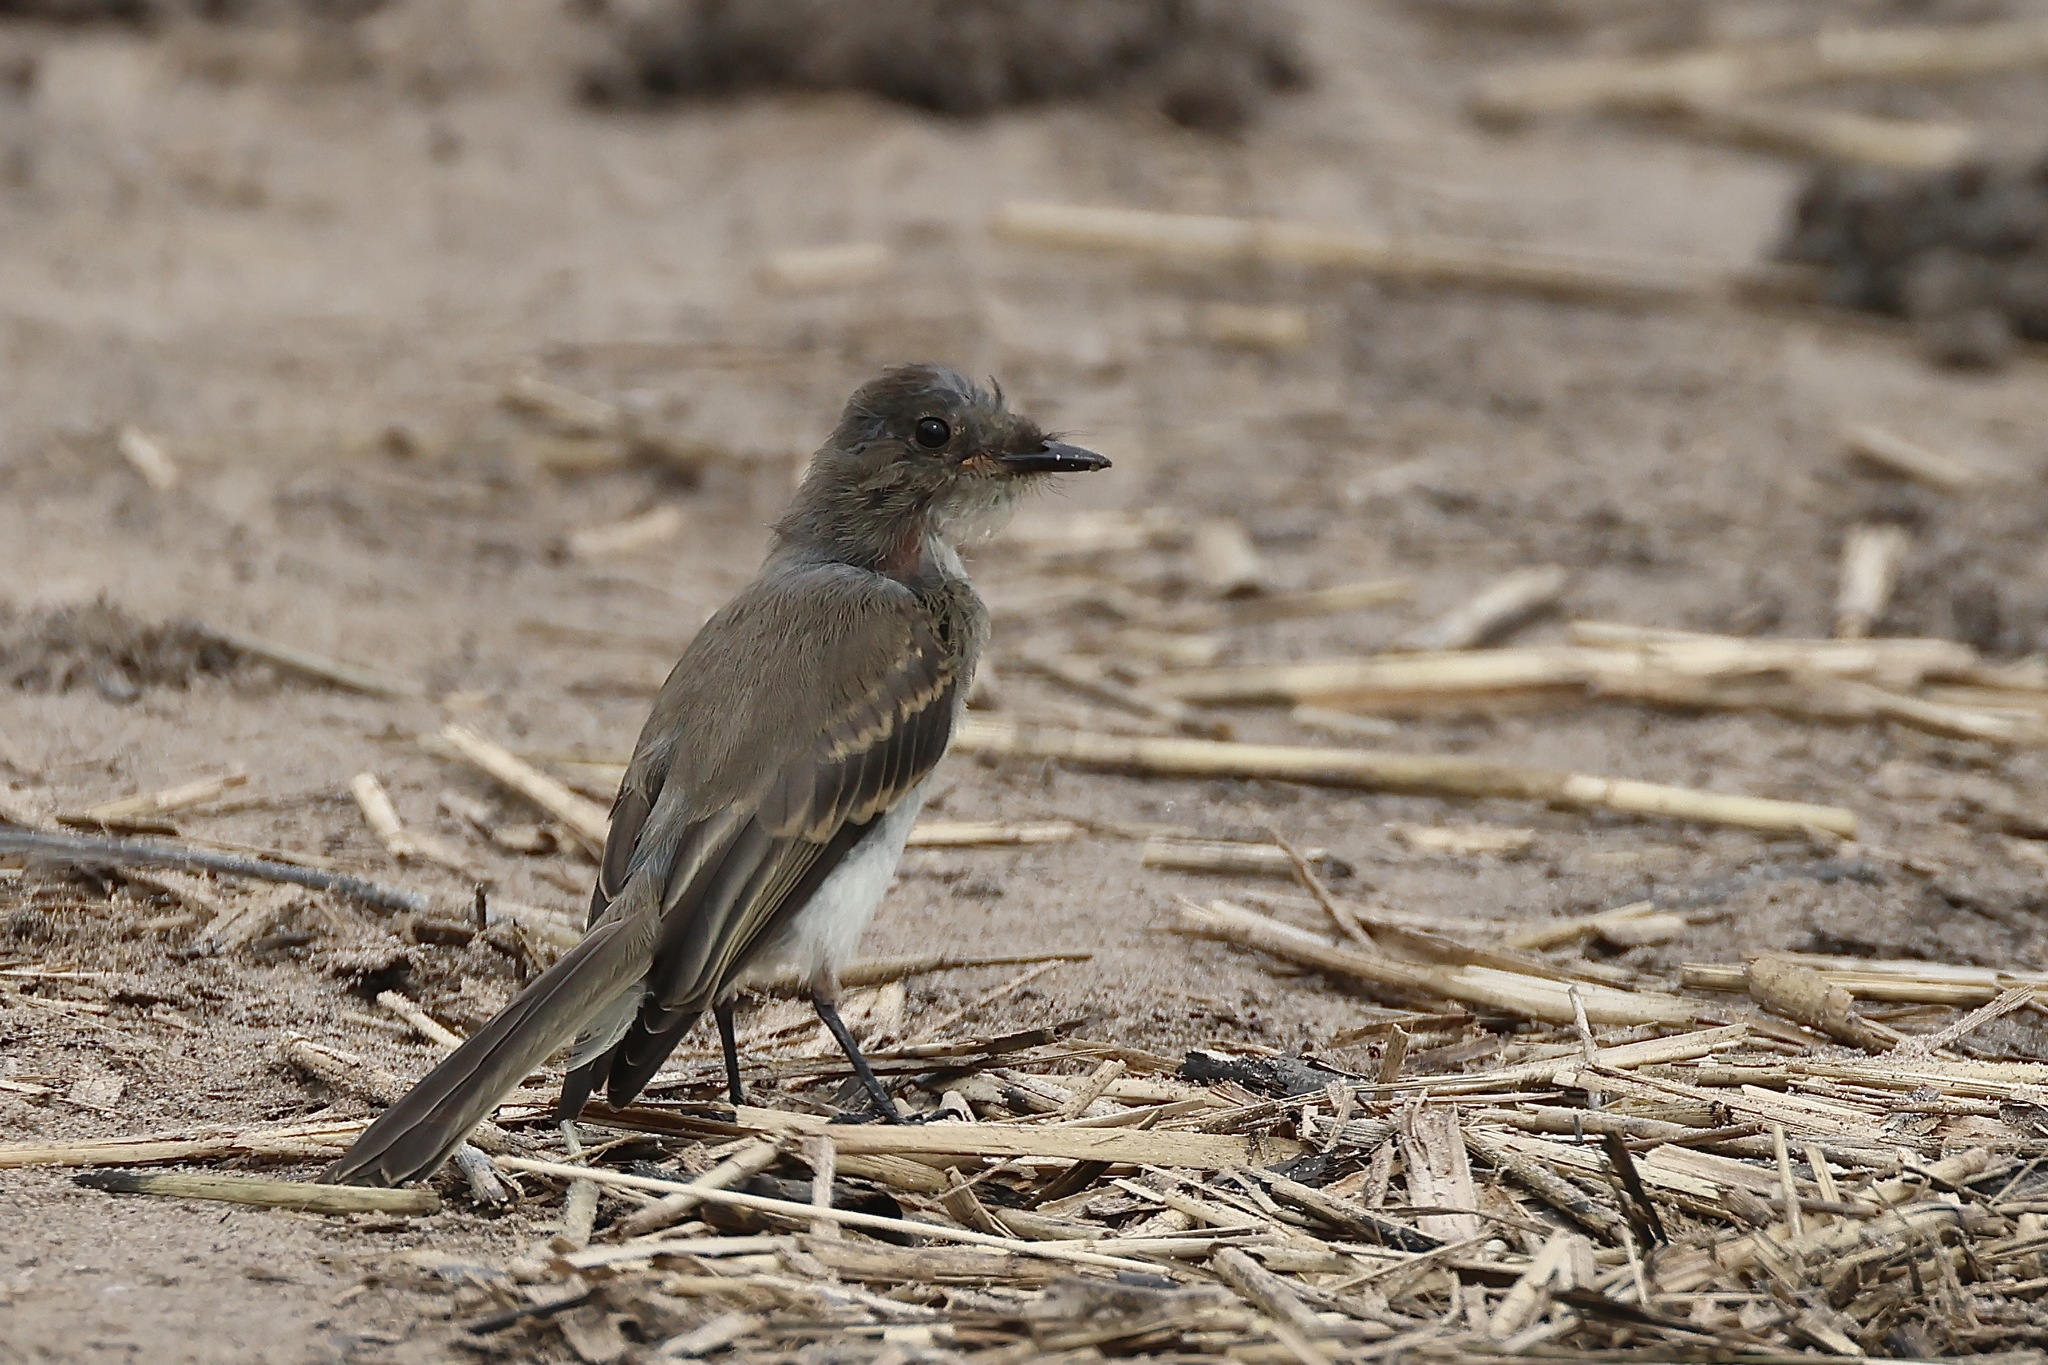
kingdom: Animalia
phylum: Chordata
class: Aves
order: Passeriformes
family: Tyrannidae
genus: Sayornis
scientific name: Sayornis phoebe
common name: Eastern phoebe
